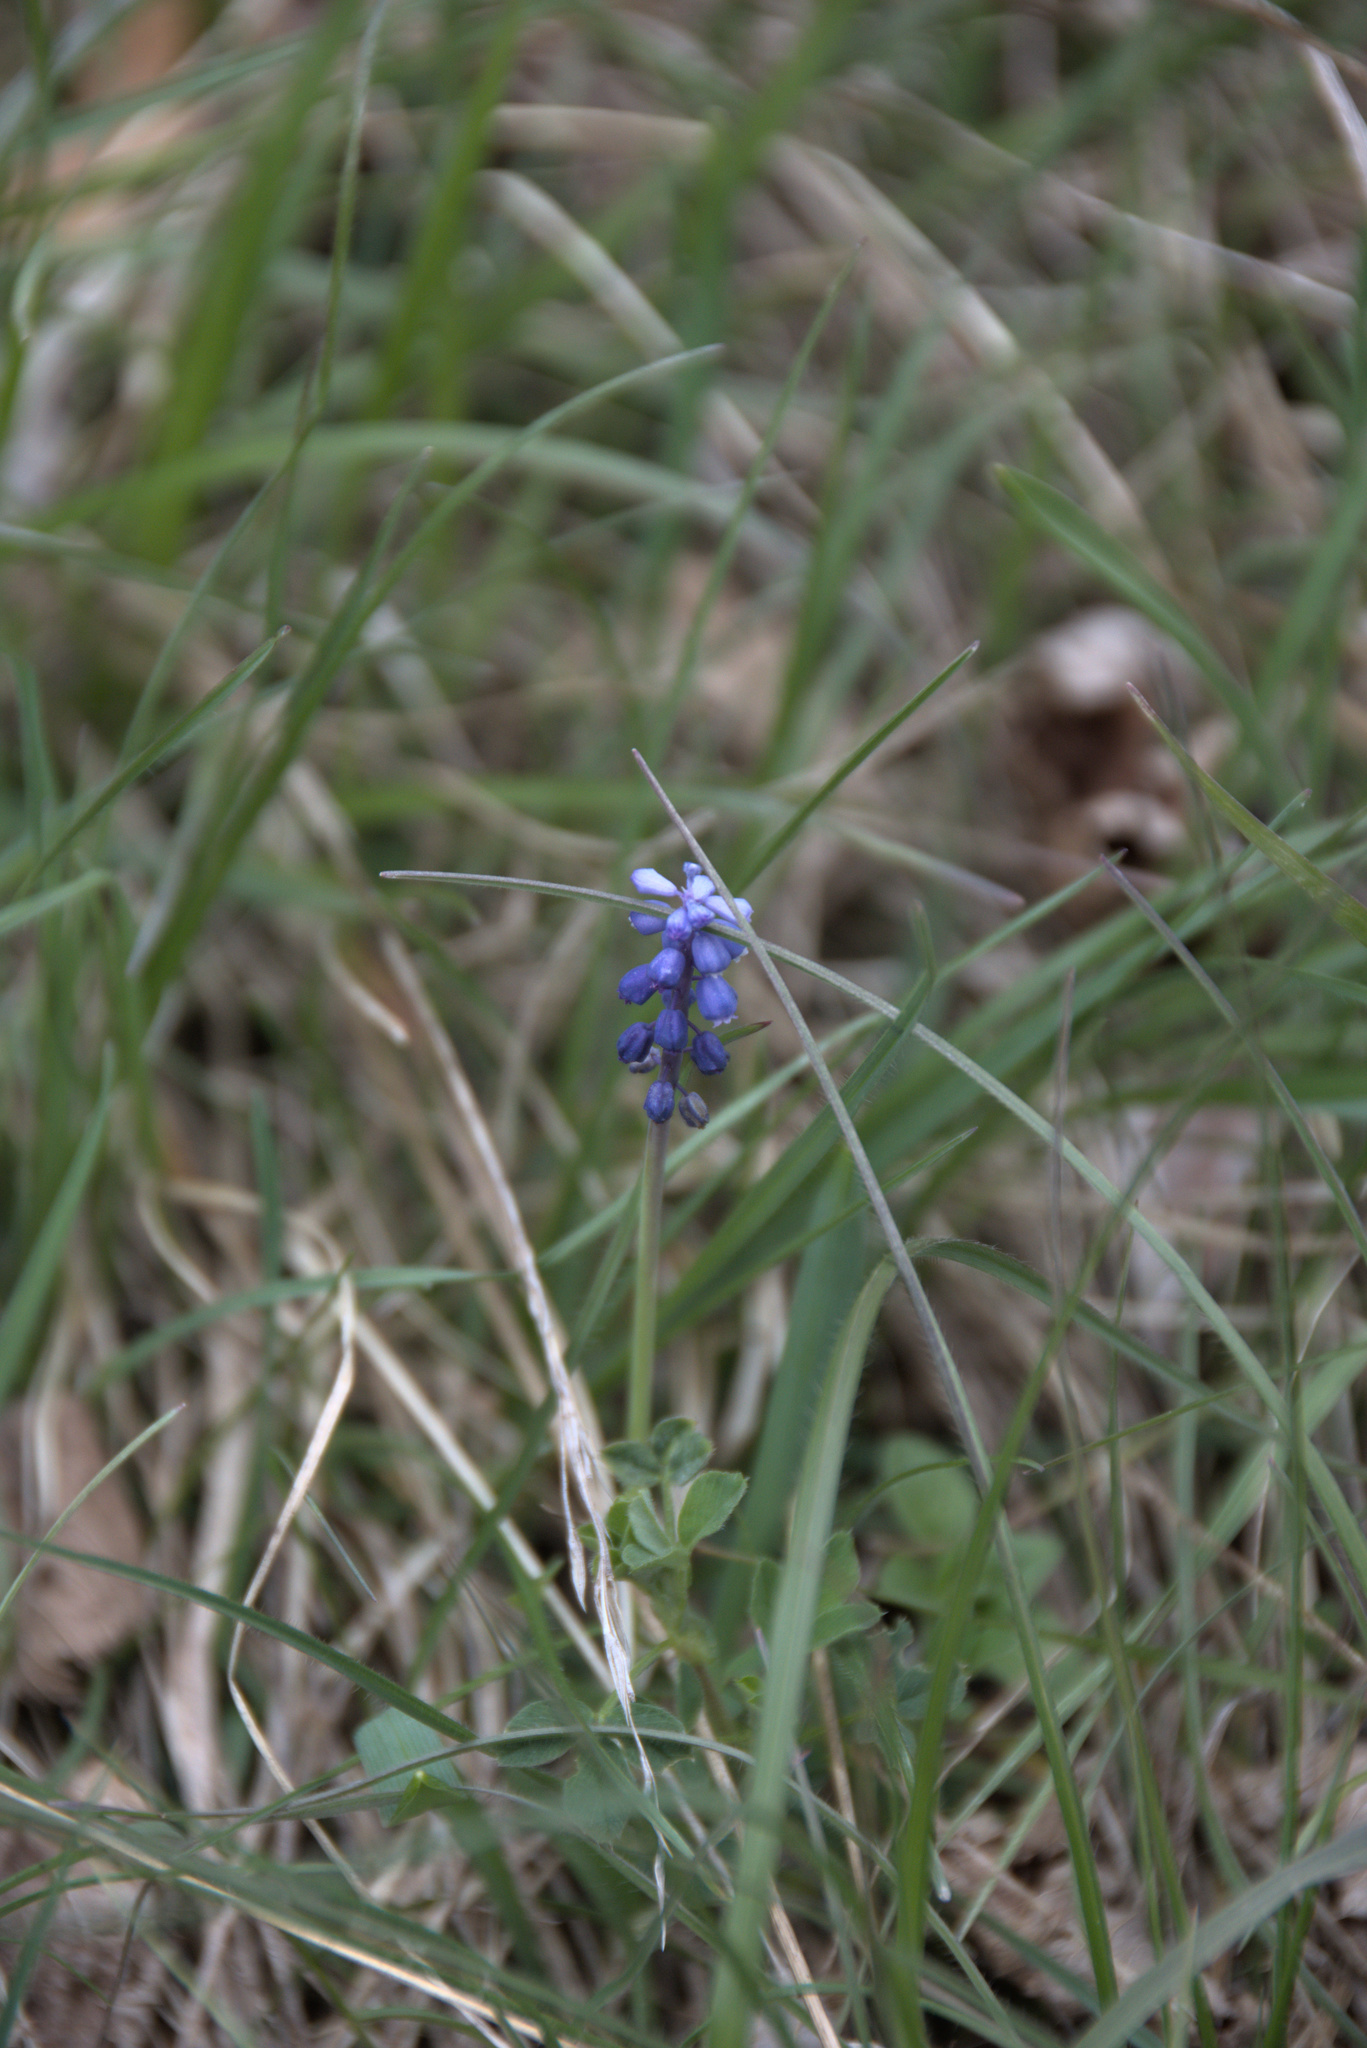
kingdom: Plantae
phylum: Tracheophyta
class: Liliopsida
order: Asparagales
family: Asparagaceae
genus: Muscari
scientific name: Muscari botryoides
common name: Compact grape-hyacinth
